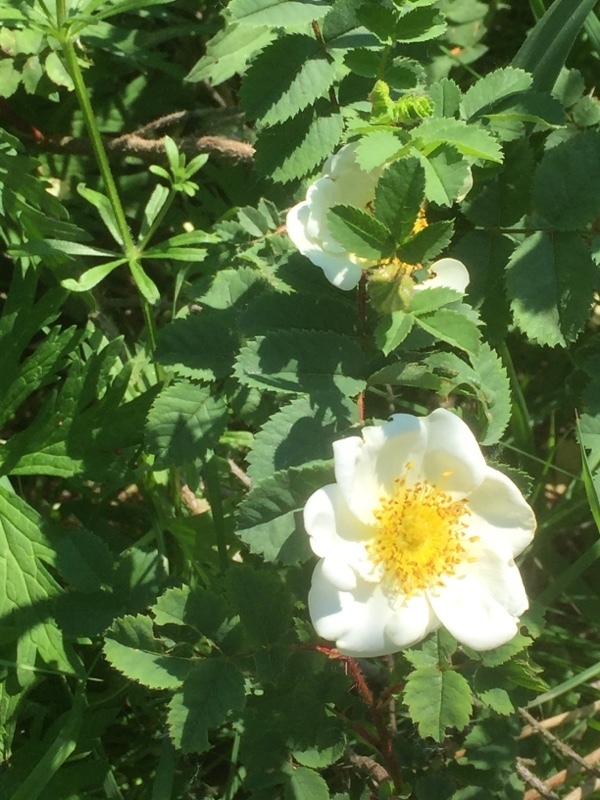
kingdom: Plantae
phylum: Tracheophyta
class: Magnoliopsida
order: Rosales
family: Rosaceae
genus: Rosa
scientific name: Rosa spinosissima
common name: Burnet rose
